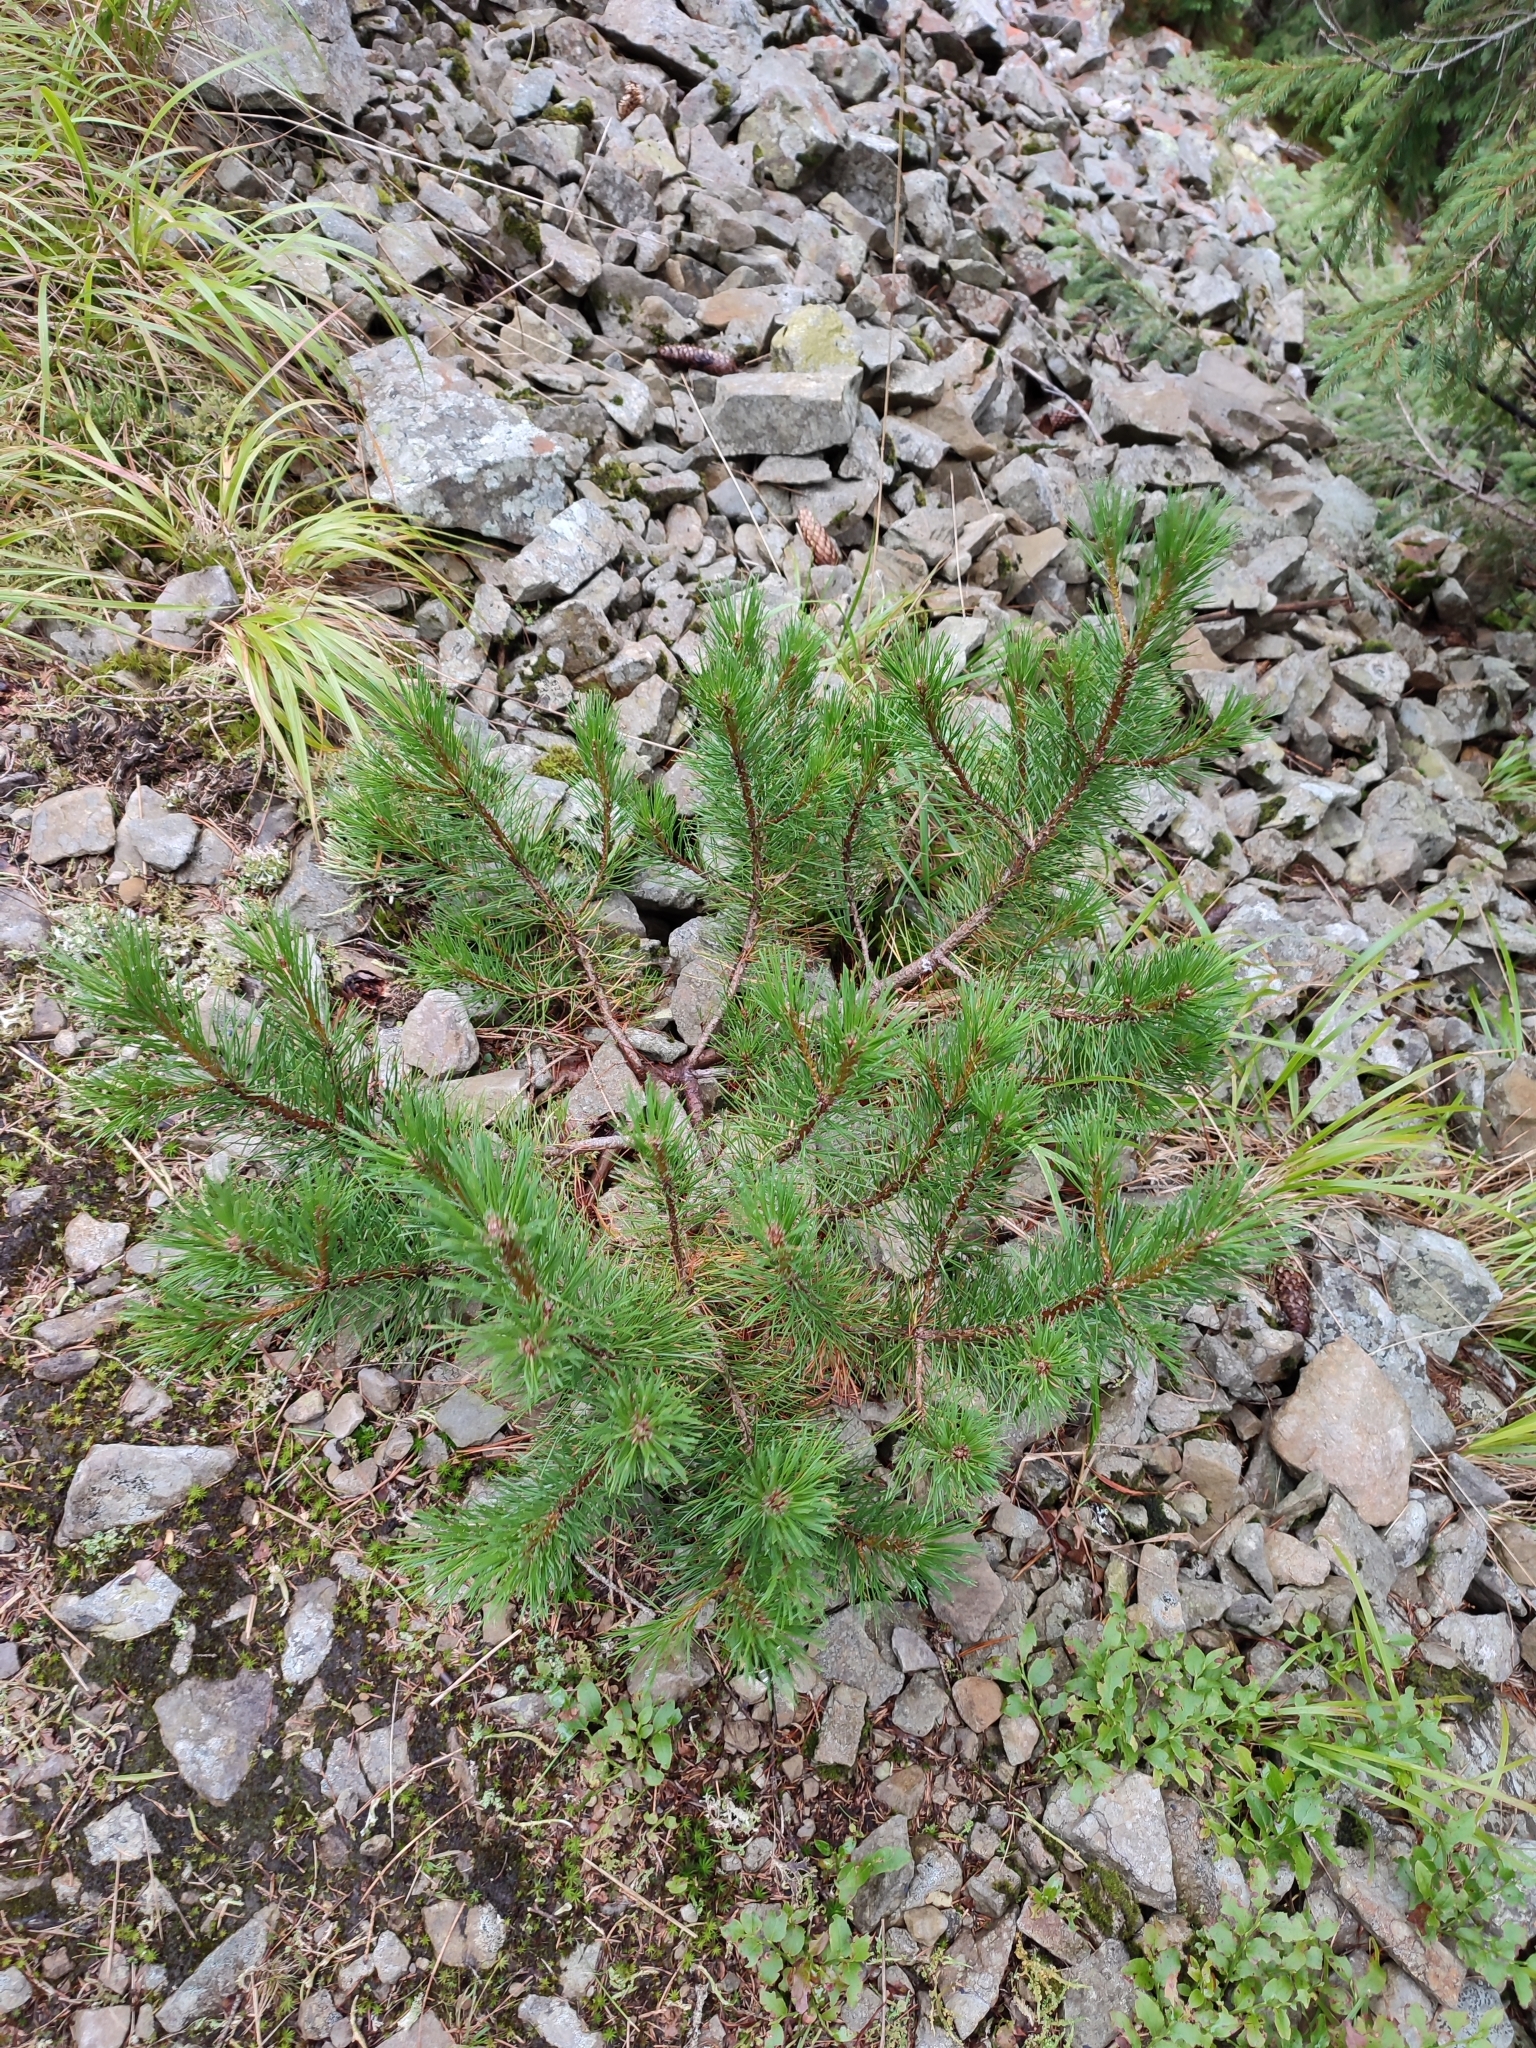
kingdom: Plantae
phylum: Tracheophyta
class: Pinopsida
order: Pinales
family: Pinaceae
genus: Pinus
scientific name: Pinus mugo
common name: Mugo pine
